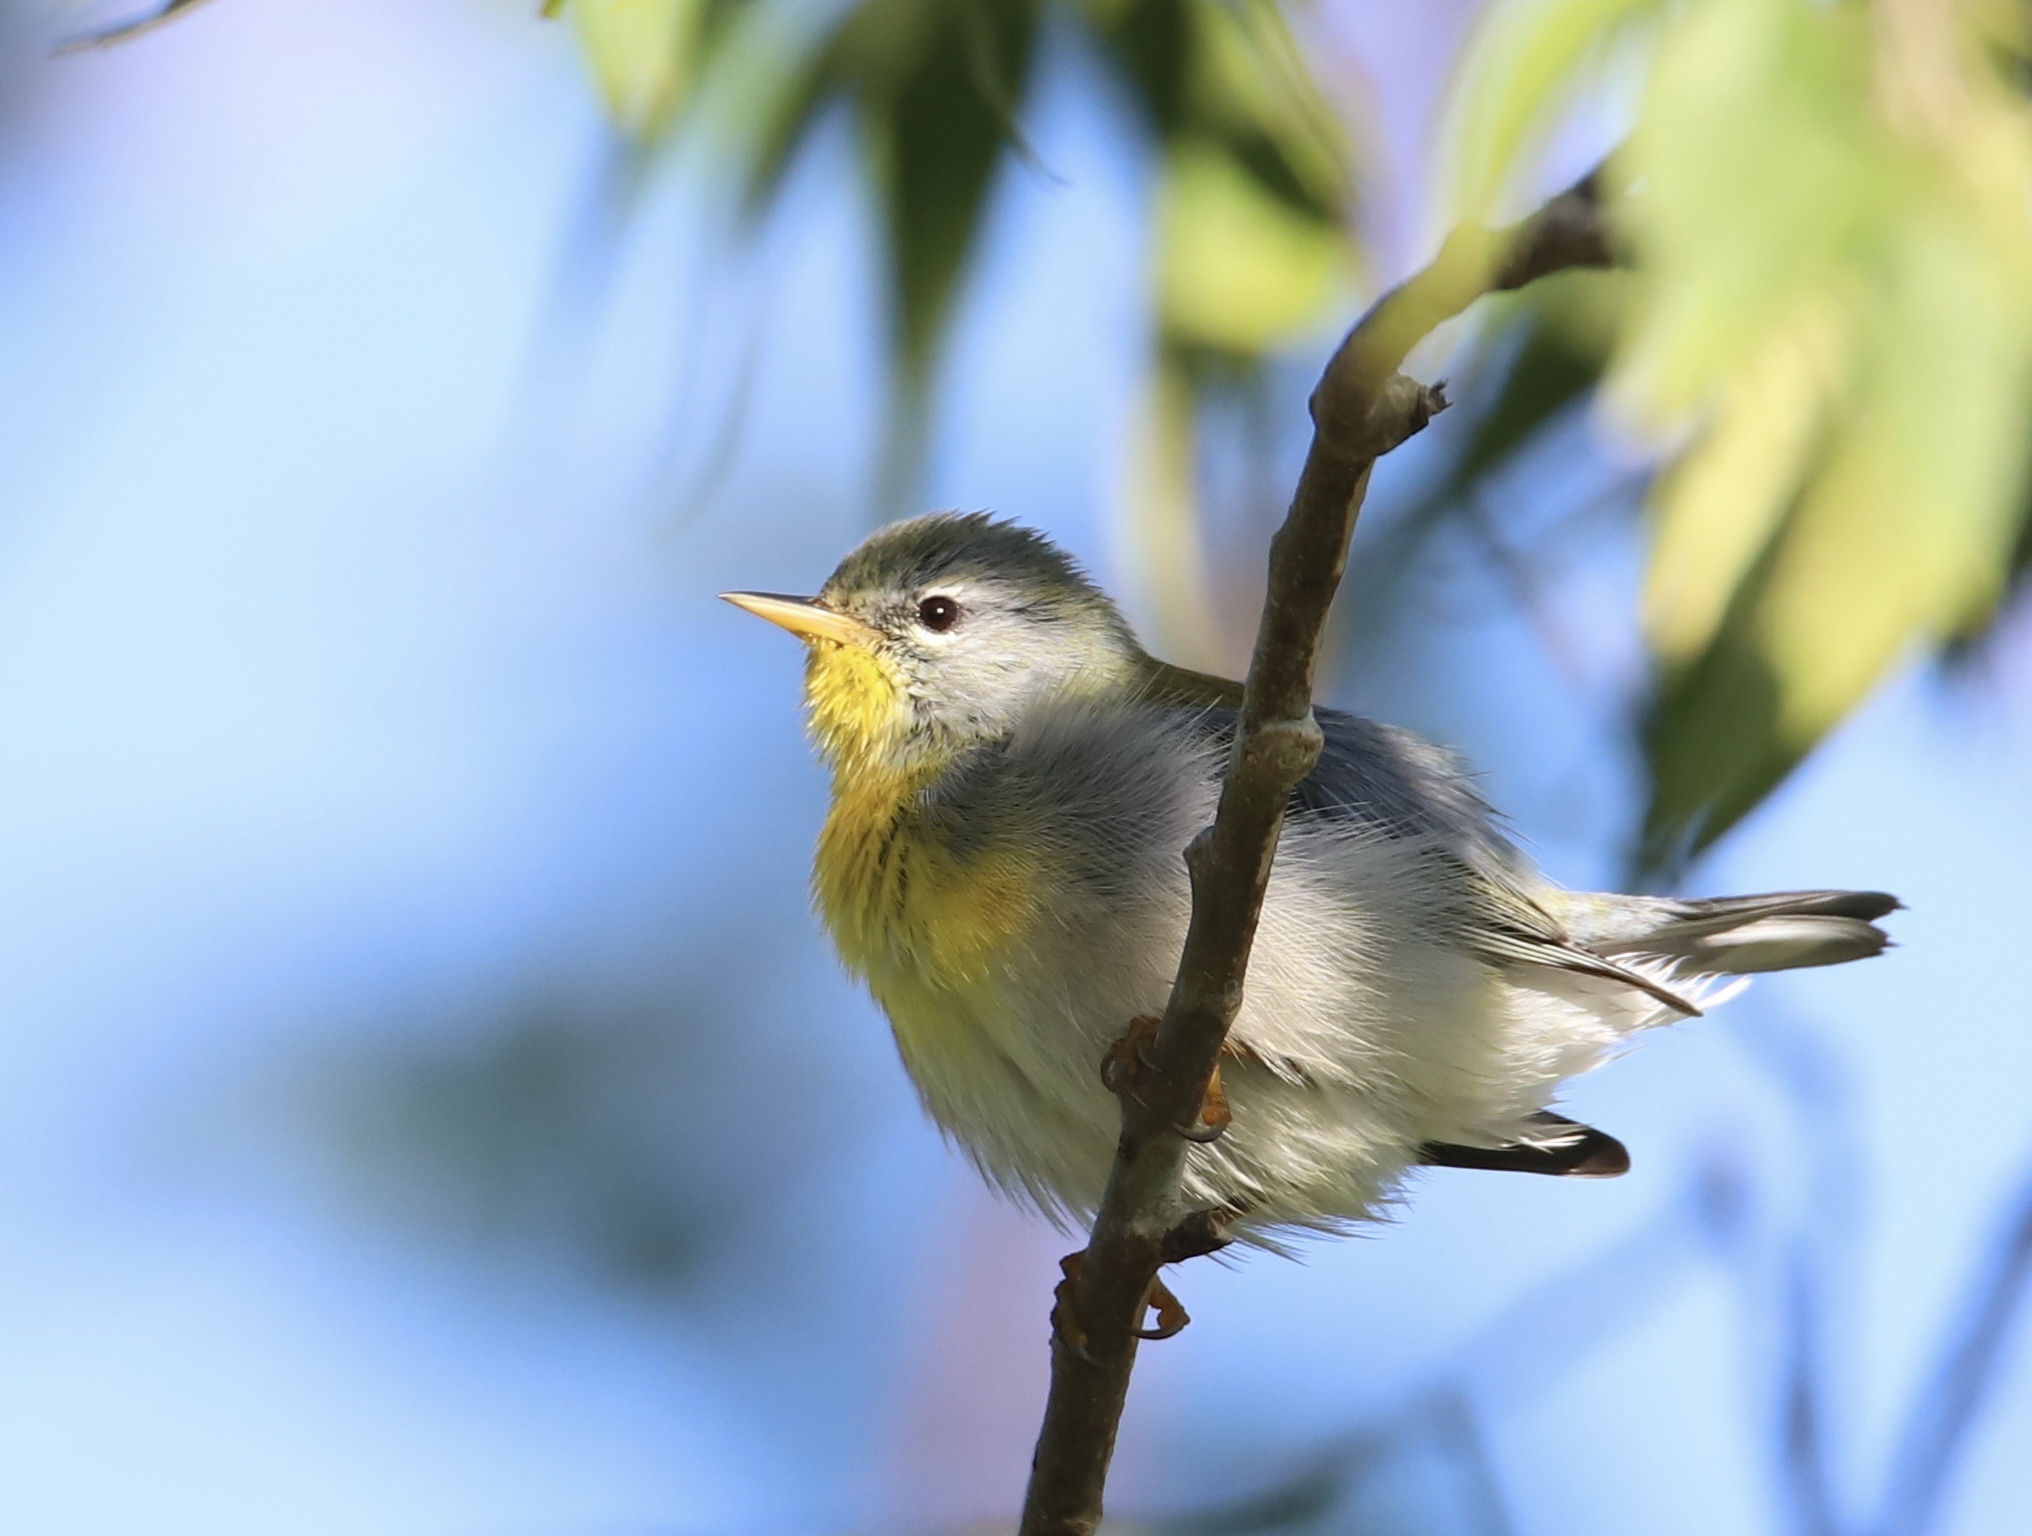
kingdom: Animalia
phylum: Chordata
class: Aves
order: Passeriformes
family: Parulidae
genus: Setophaga
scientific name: Setophaga americana
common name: Northern parula
